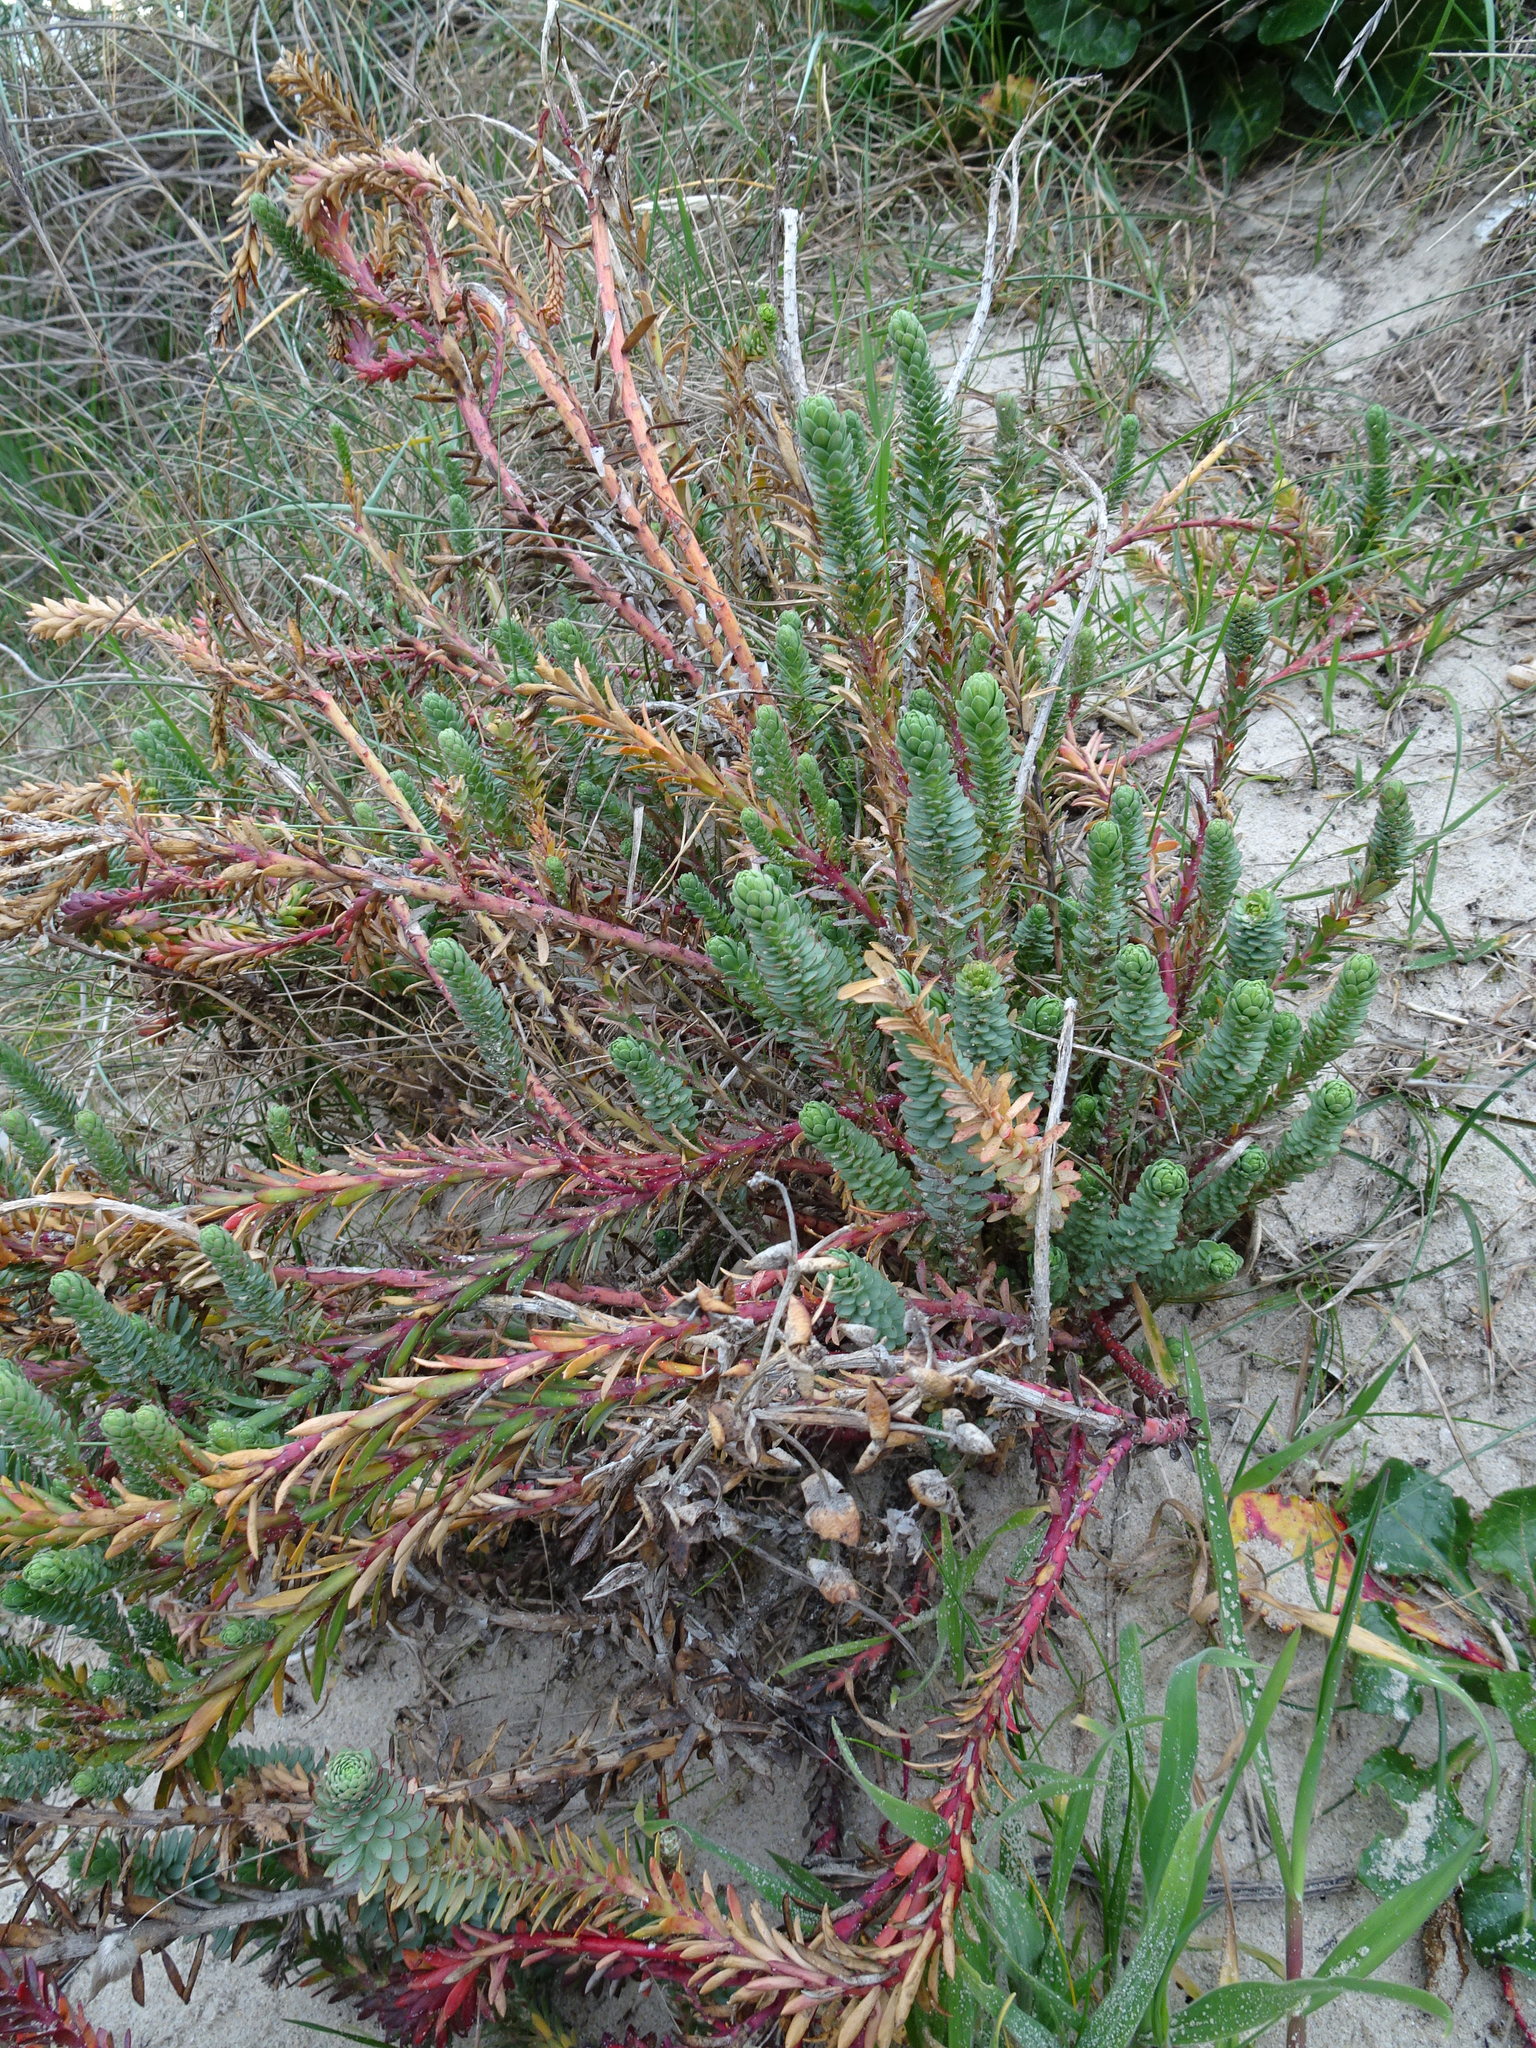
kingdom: Plantae
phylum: Tracheophyta
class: Magnoliopsida
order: Malpighiales
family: Euphorbiaceae
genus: Euphorbia
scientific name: Euphorbia paralias
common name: Sea spurge
